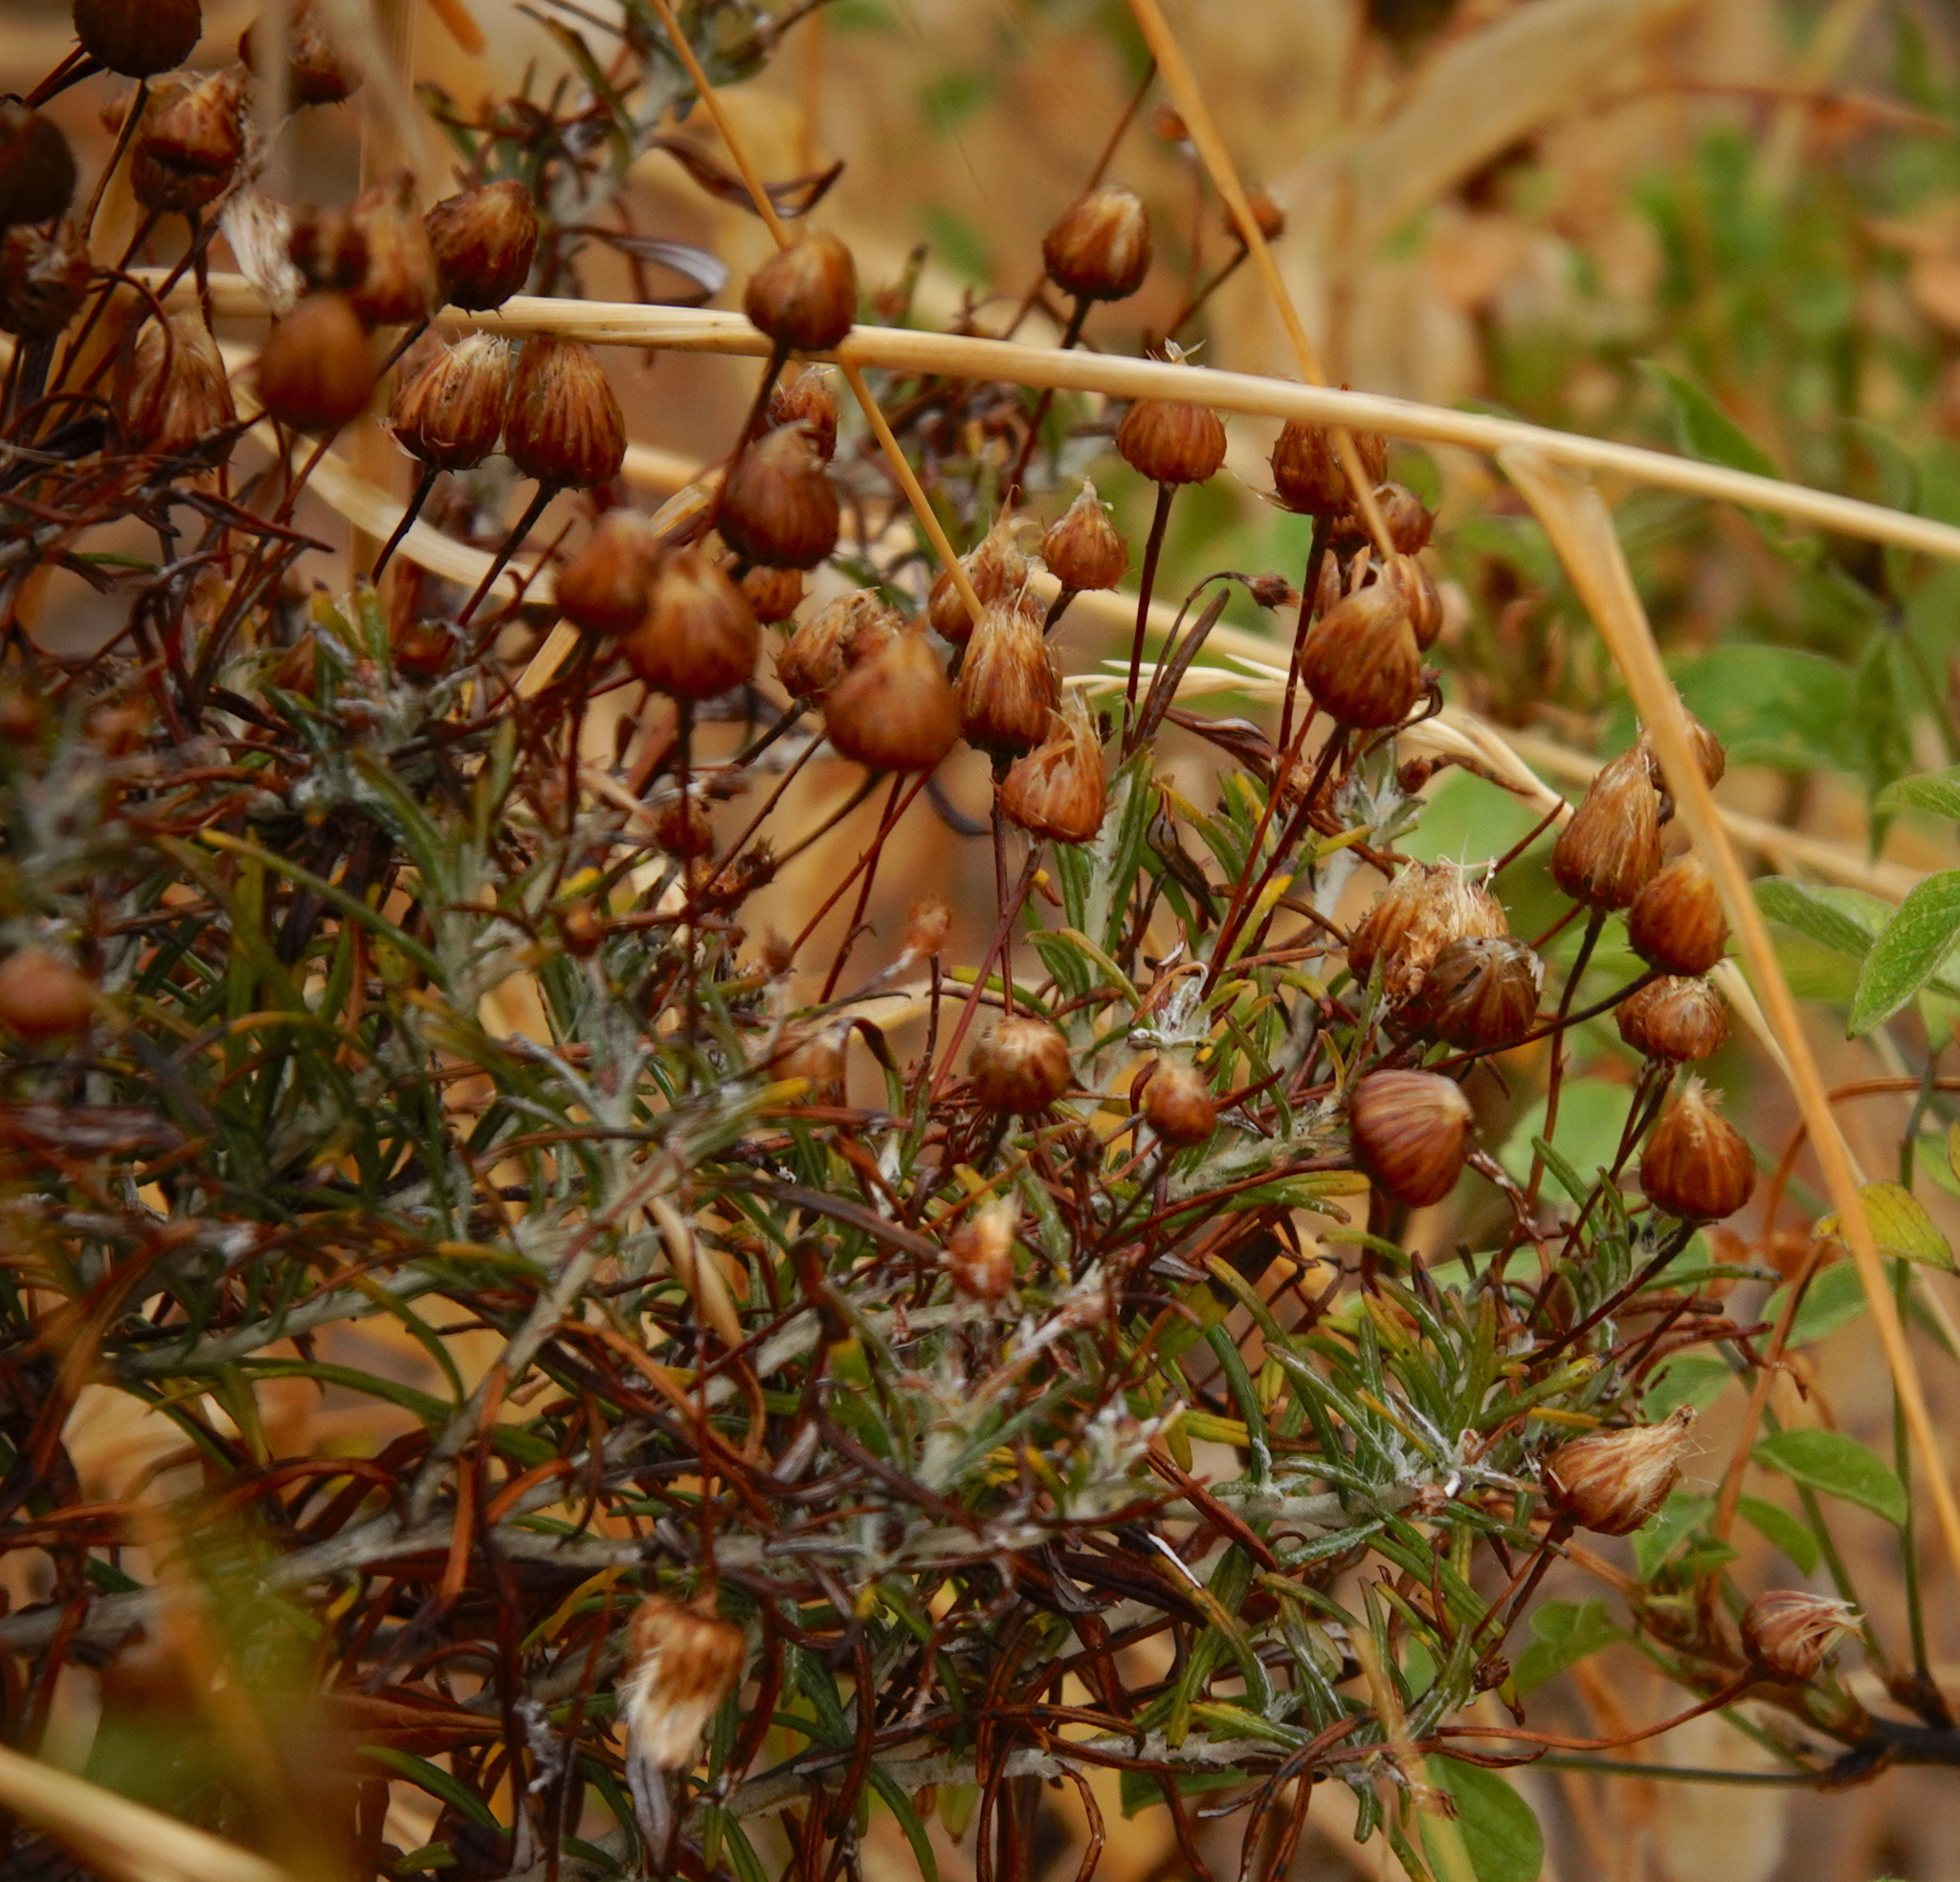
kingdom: Plantae
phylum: Tracheophyta
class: Magnoliopsida
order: Asterales
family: Asteraceae
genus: Phagnalon
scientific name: Phagnalon saxatile
